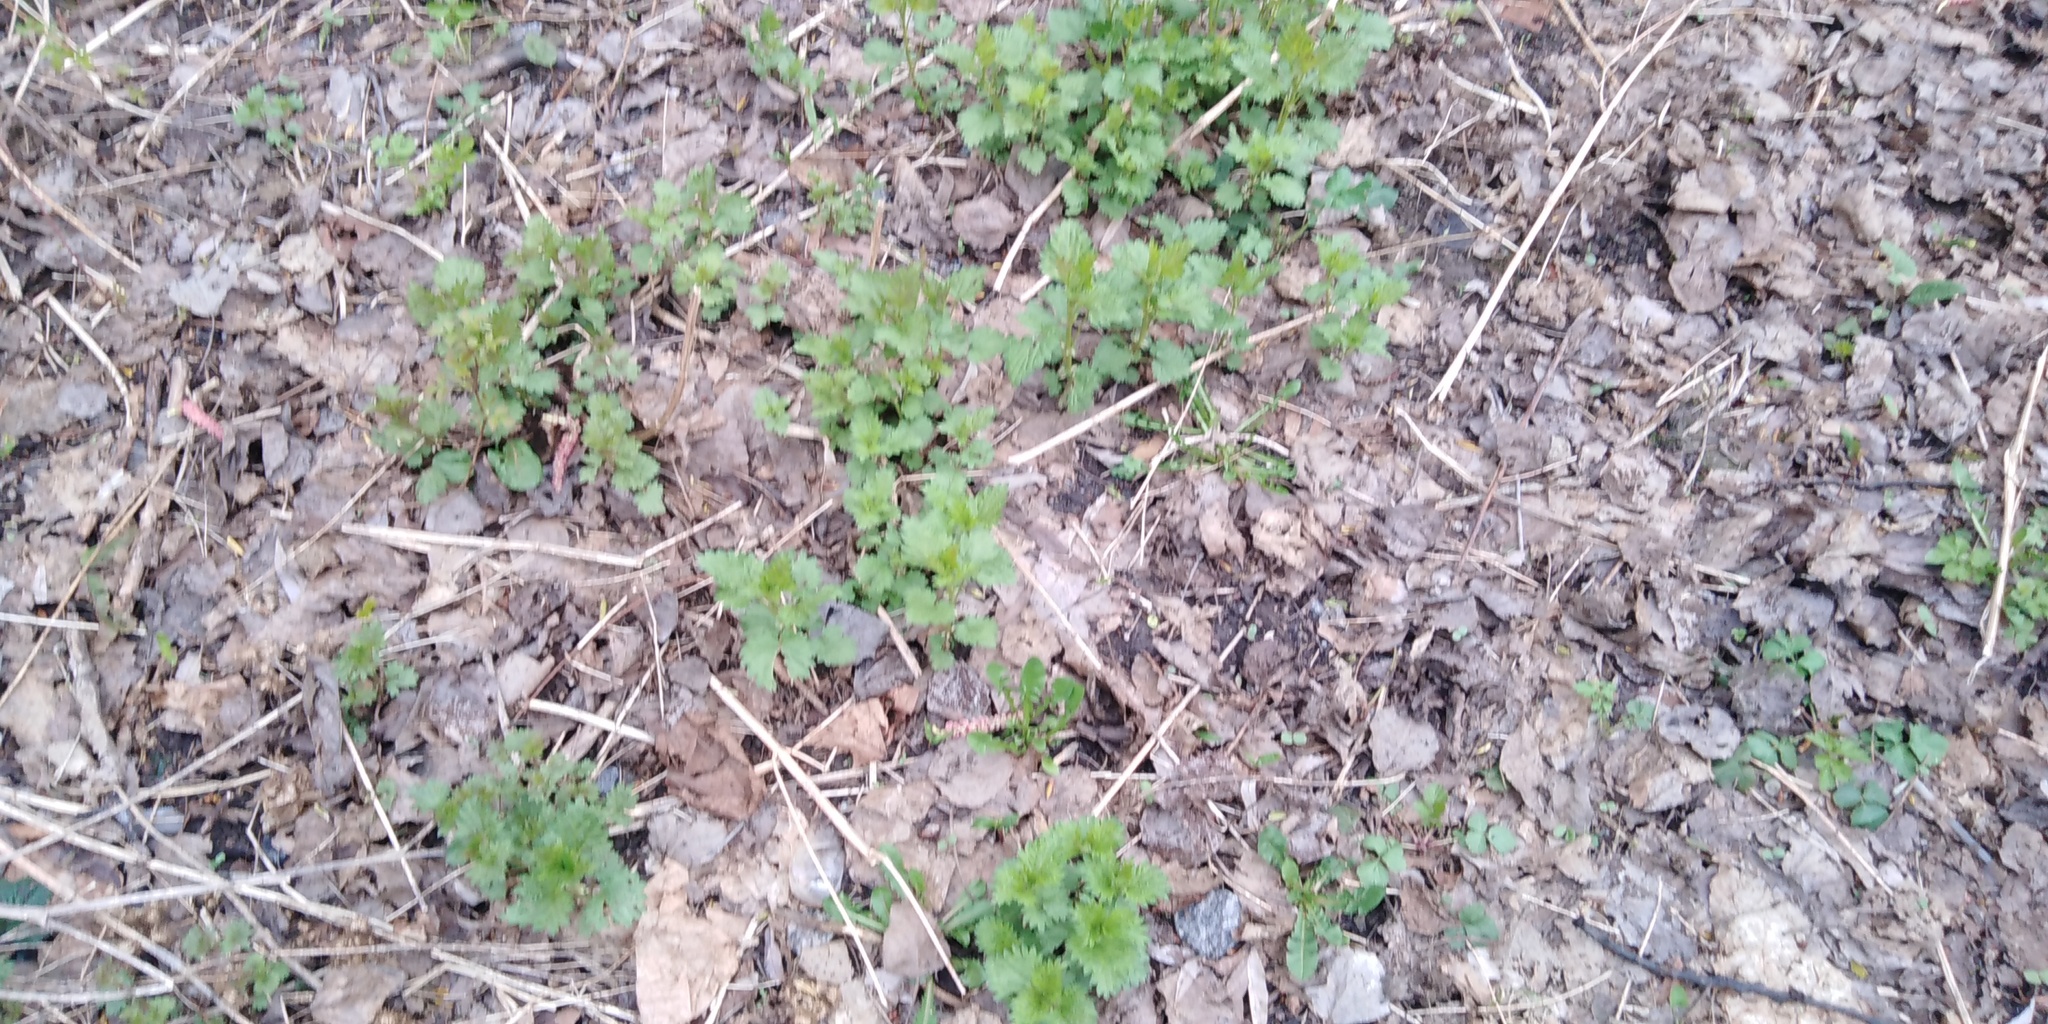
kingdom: Plantae
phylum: Tracheophyta
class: Magnoliopsida
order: Rosales
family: Urticaceae
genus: Urtica
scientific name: Urtica dioica
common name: Common nettle
